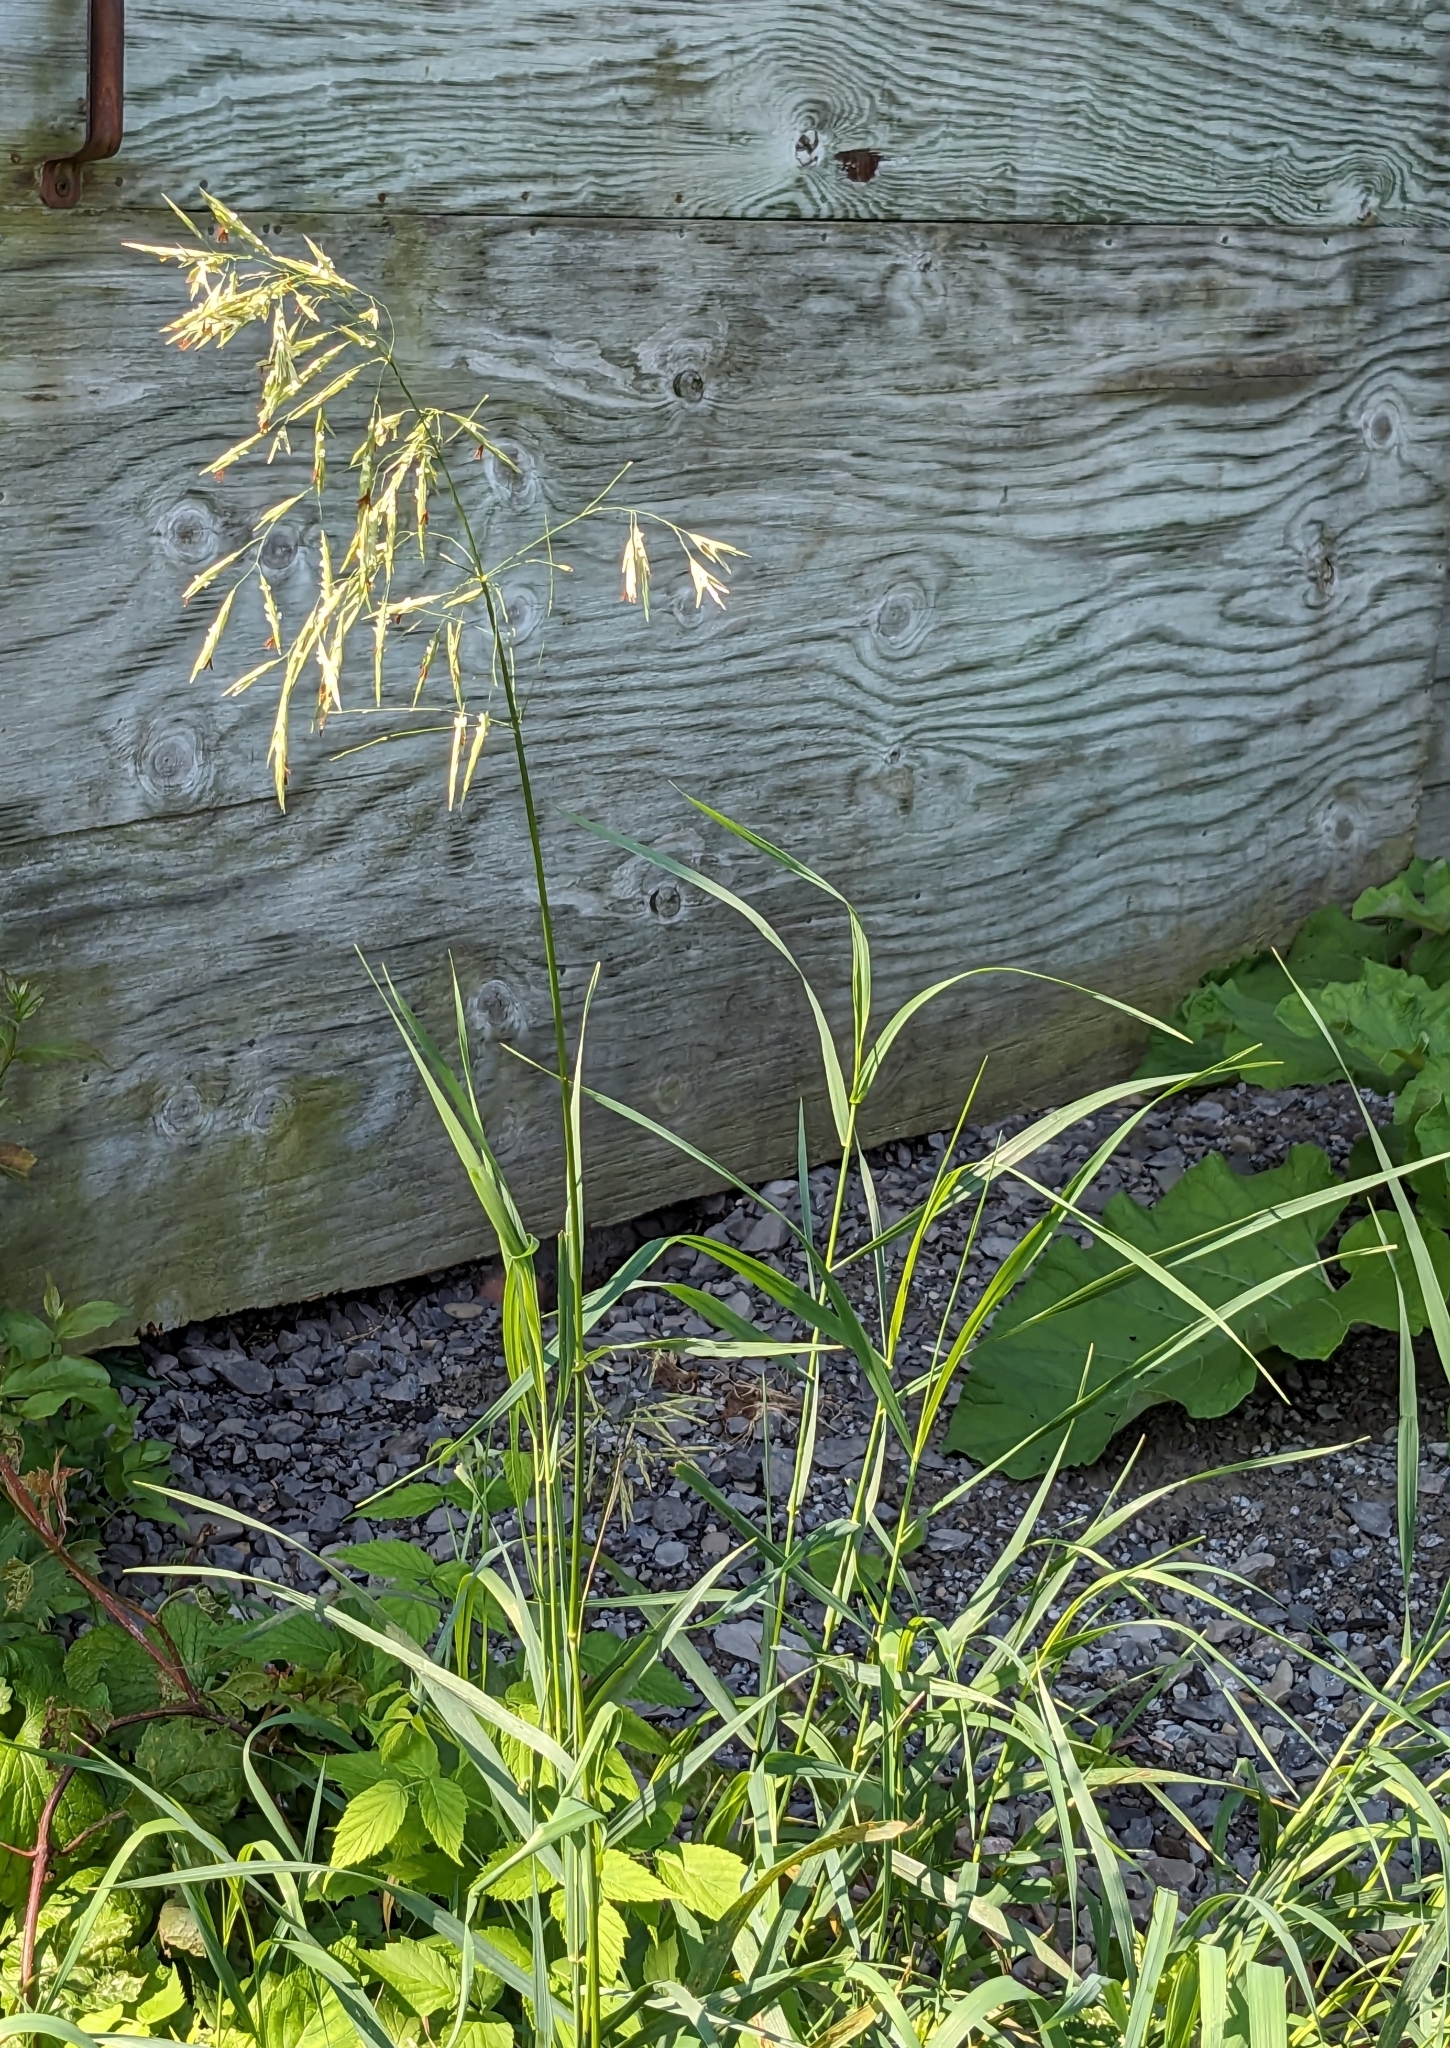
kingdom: Plantae
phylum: Tracheophyta
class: Liliopsida
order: Poales
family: Poaceae
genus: Bromus
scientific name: Bromus inermis
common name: Smooth brome
